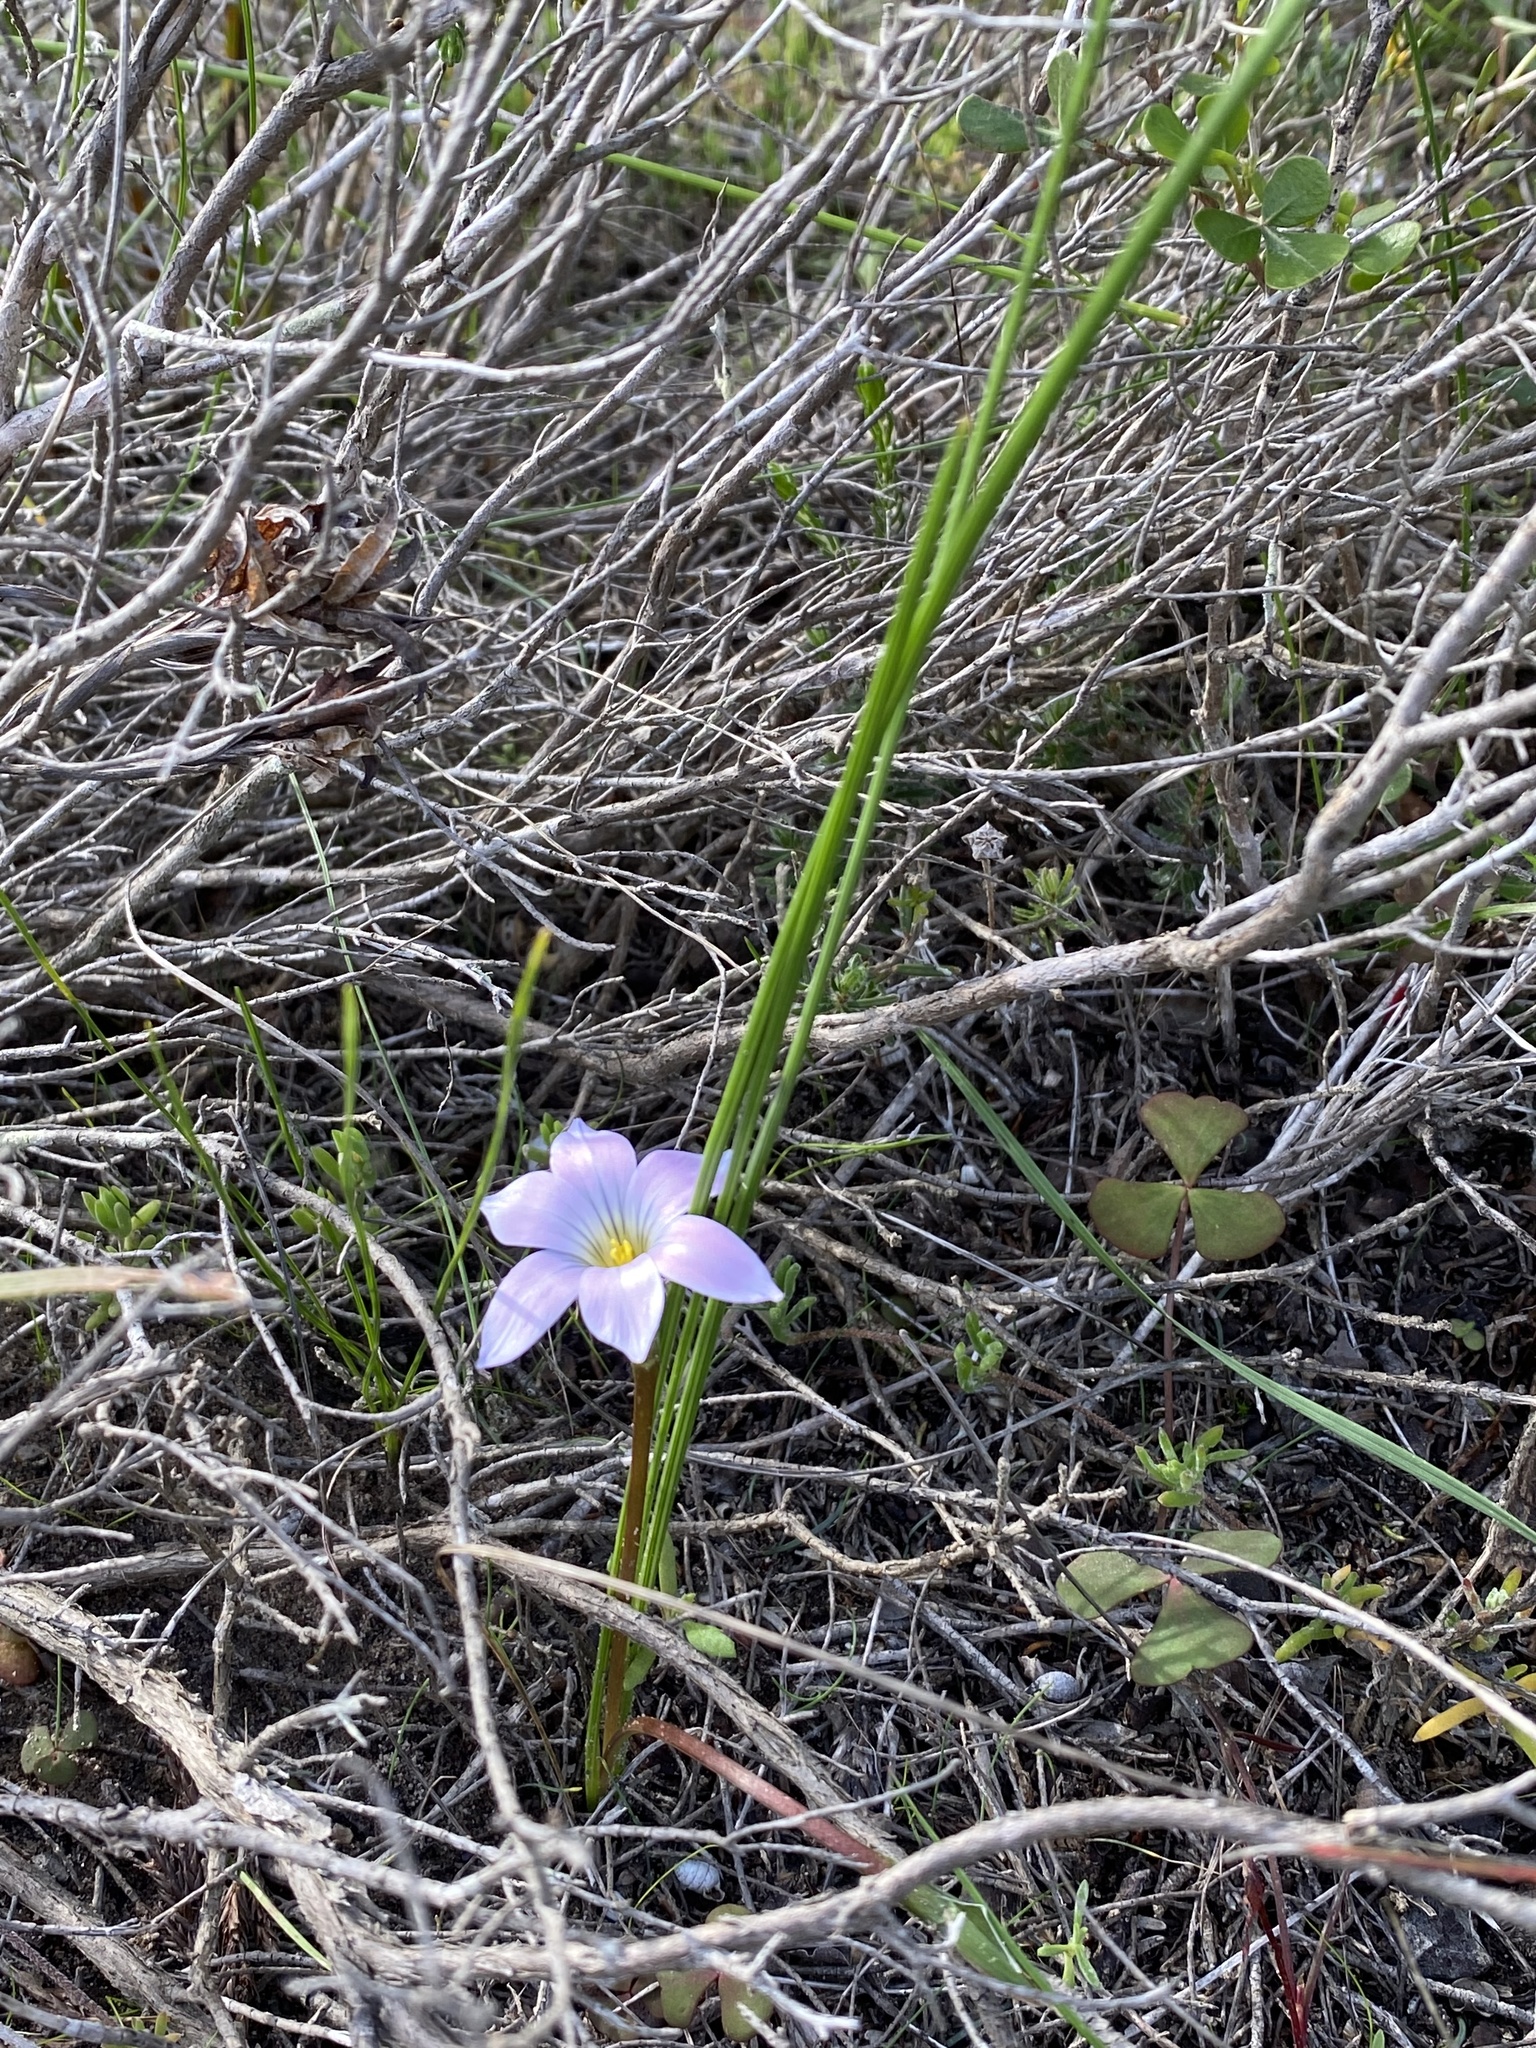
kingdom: Plantae
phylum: Tracheophyta
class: Liliopsida
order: Asparagales
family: Iridaceae
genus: Romulea
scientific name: Romulea rosea
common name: Oniongrass
